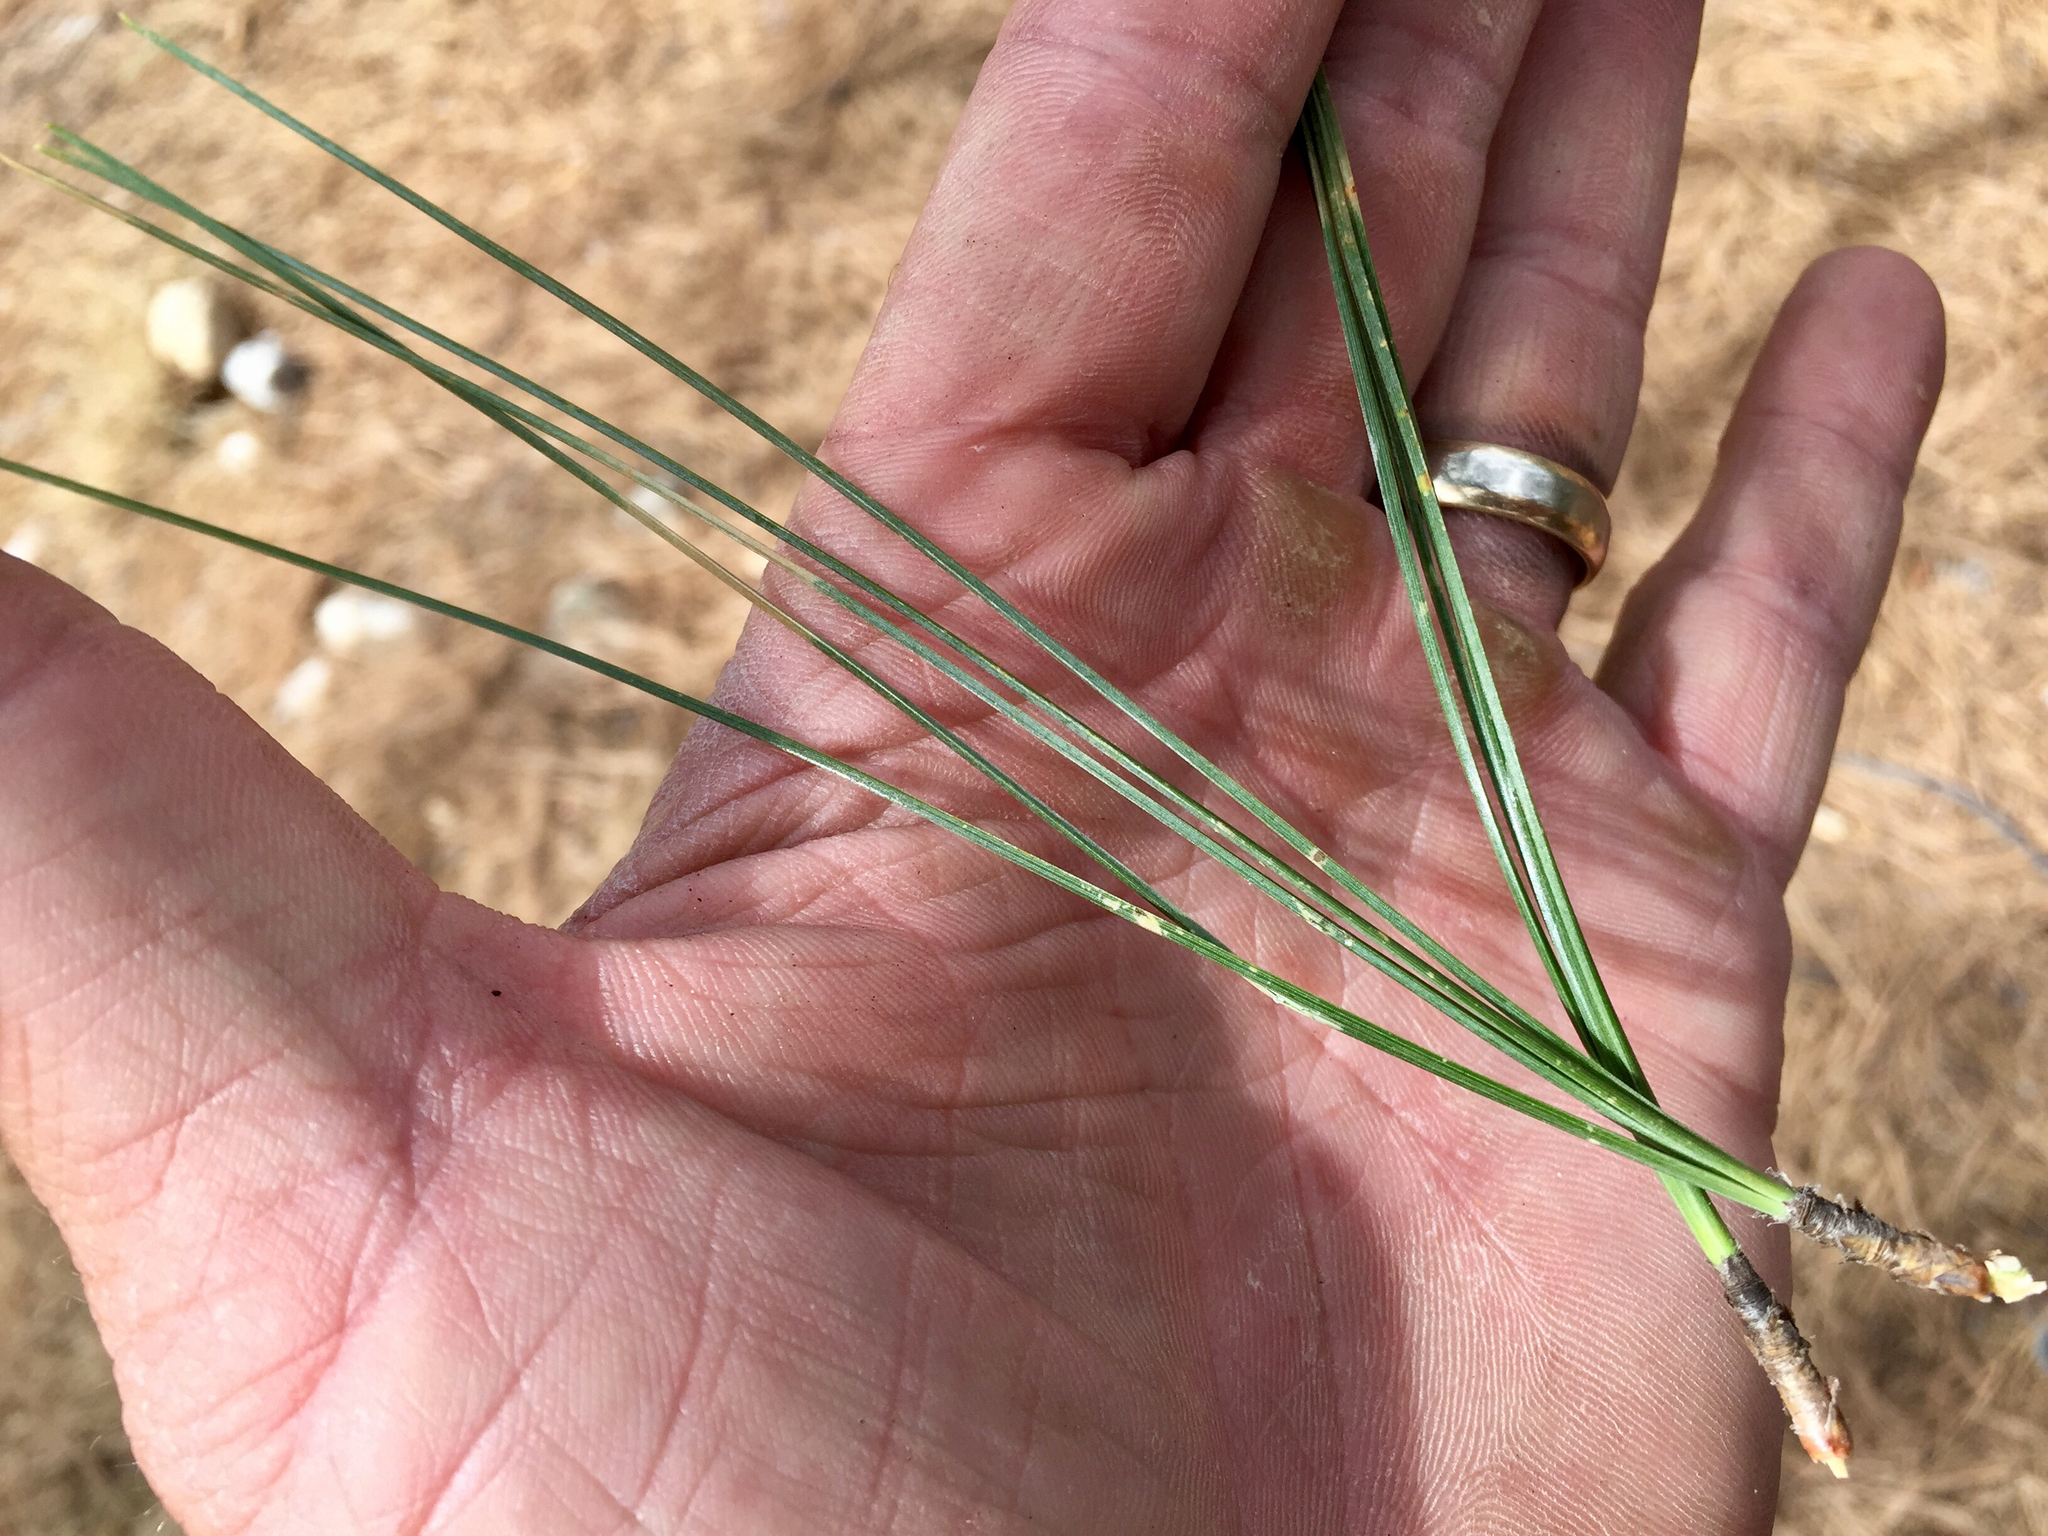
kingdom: Plantae
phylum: Tracheophyta
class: Pinopsida
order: Pinales
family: Pinaceae
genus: Pinus
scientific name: Pinus arizonica
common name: Arizona pine
